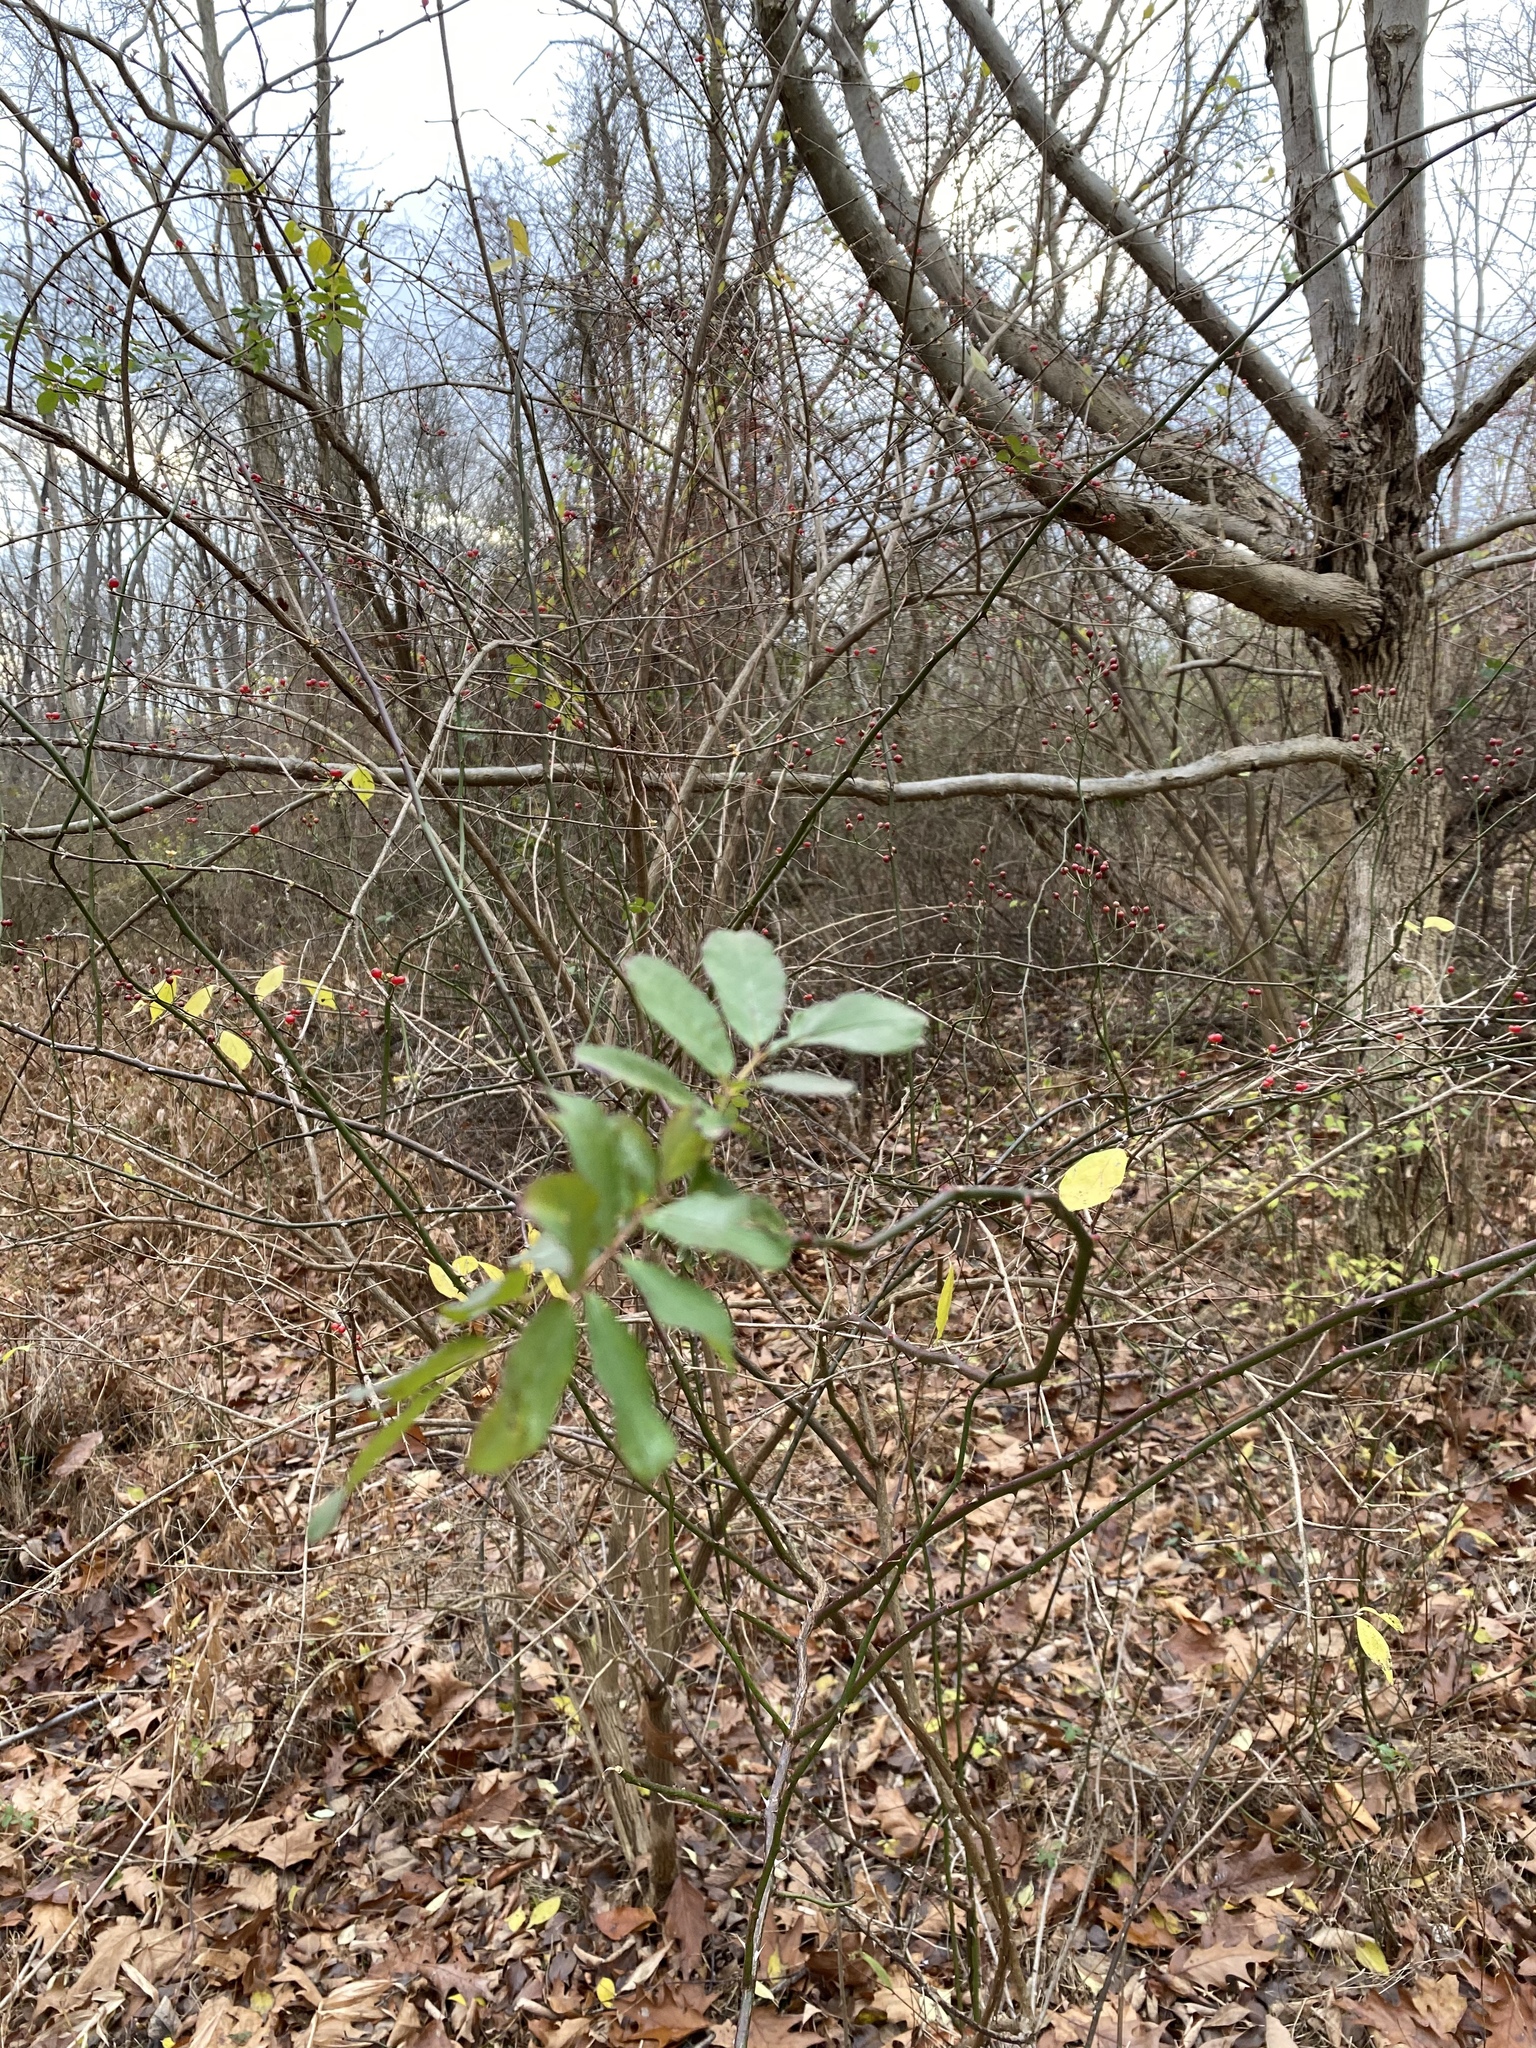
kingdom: Plantae
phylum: Tracheophyta
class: Magnoliopsida
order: Rosales
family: Rosaceae
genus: Rosa
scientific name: Rosa multiflora
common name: Multiflora rose
